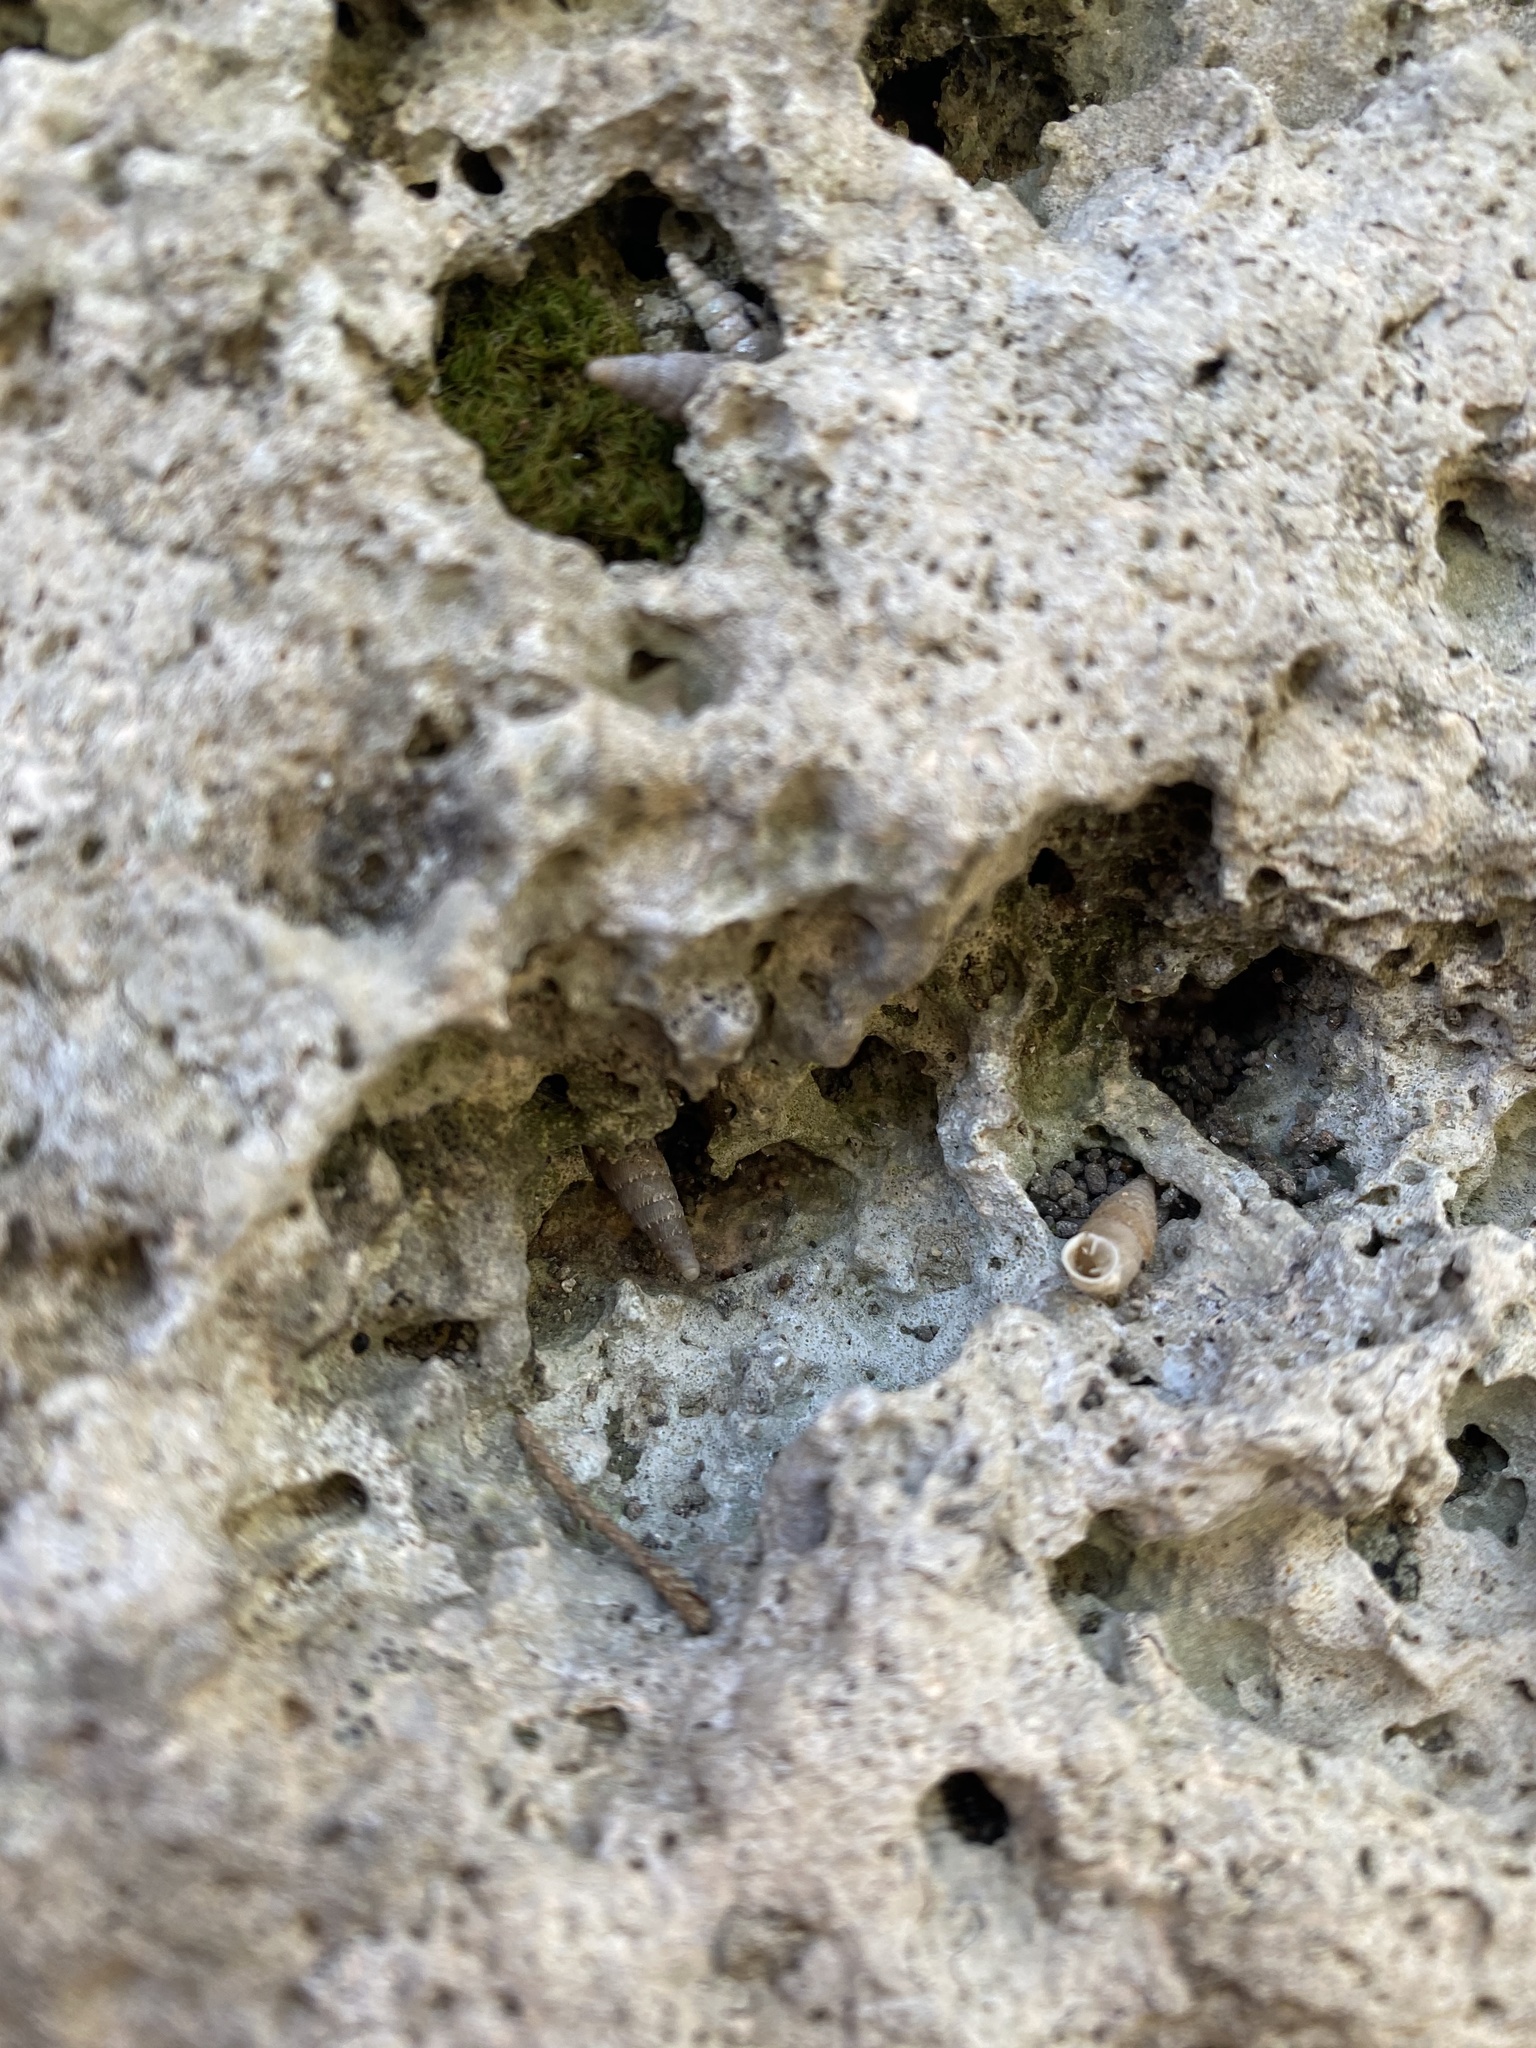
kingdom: Animalia
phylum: Mollusca
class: Gastropoda
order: Stylommatophora
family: Clausiliidae
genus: Papillifera
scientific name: Papillifera papillaris
